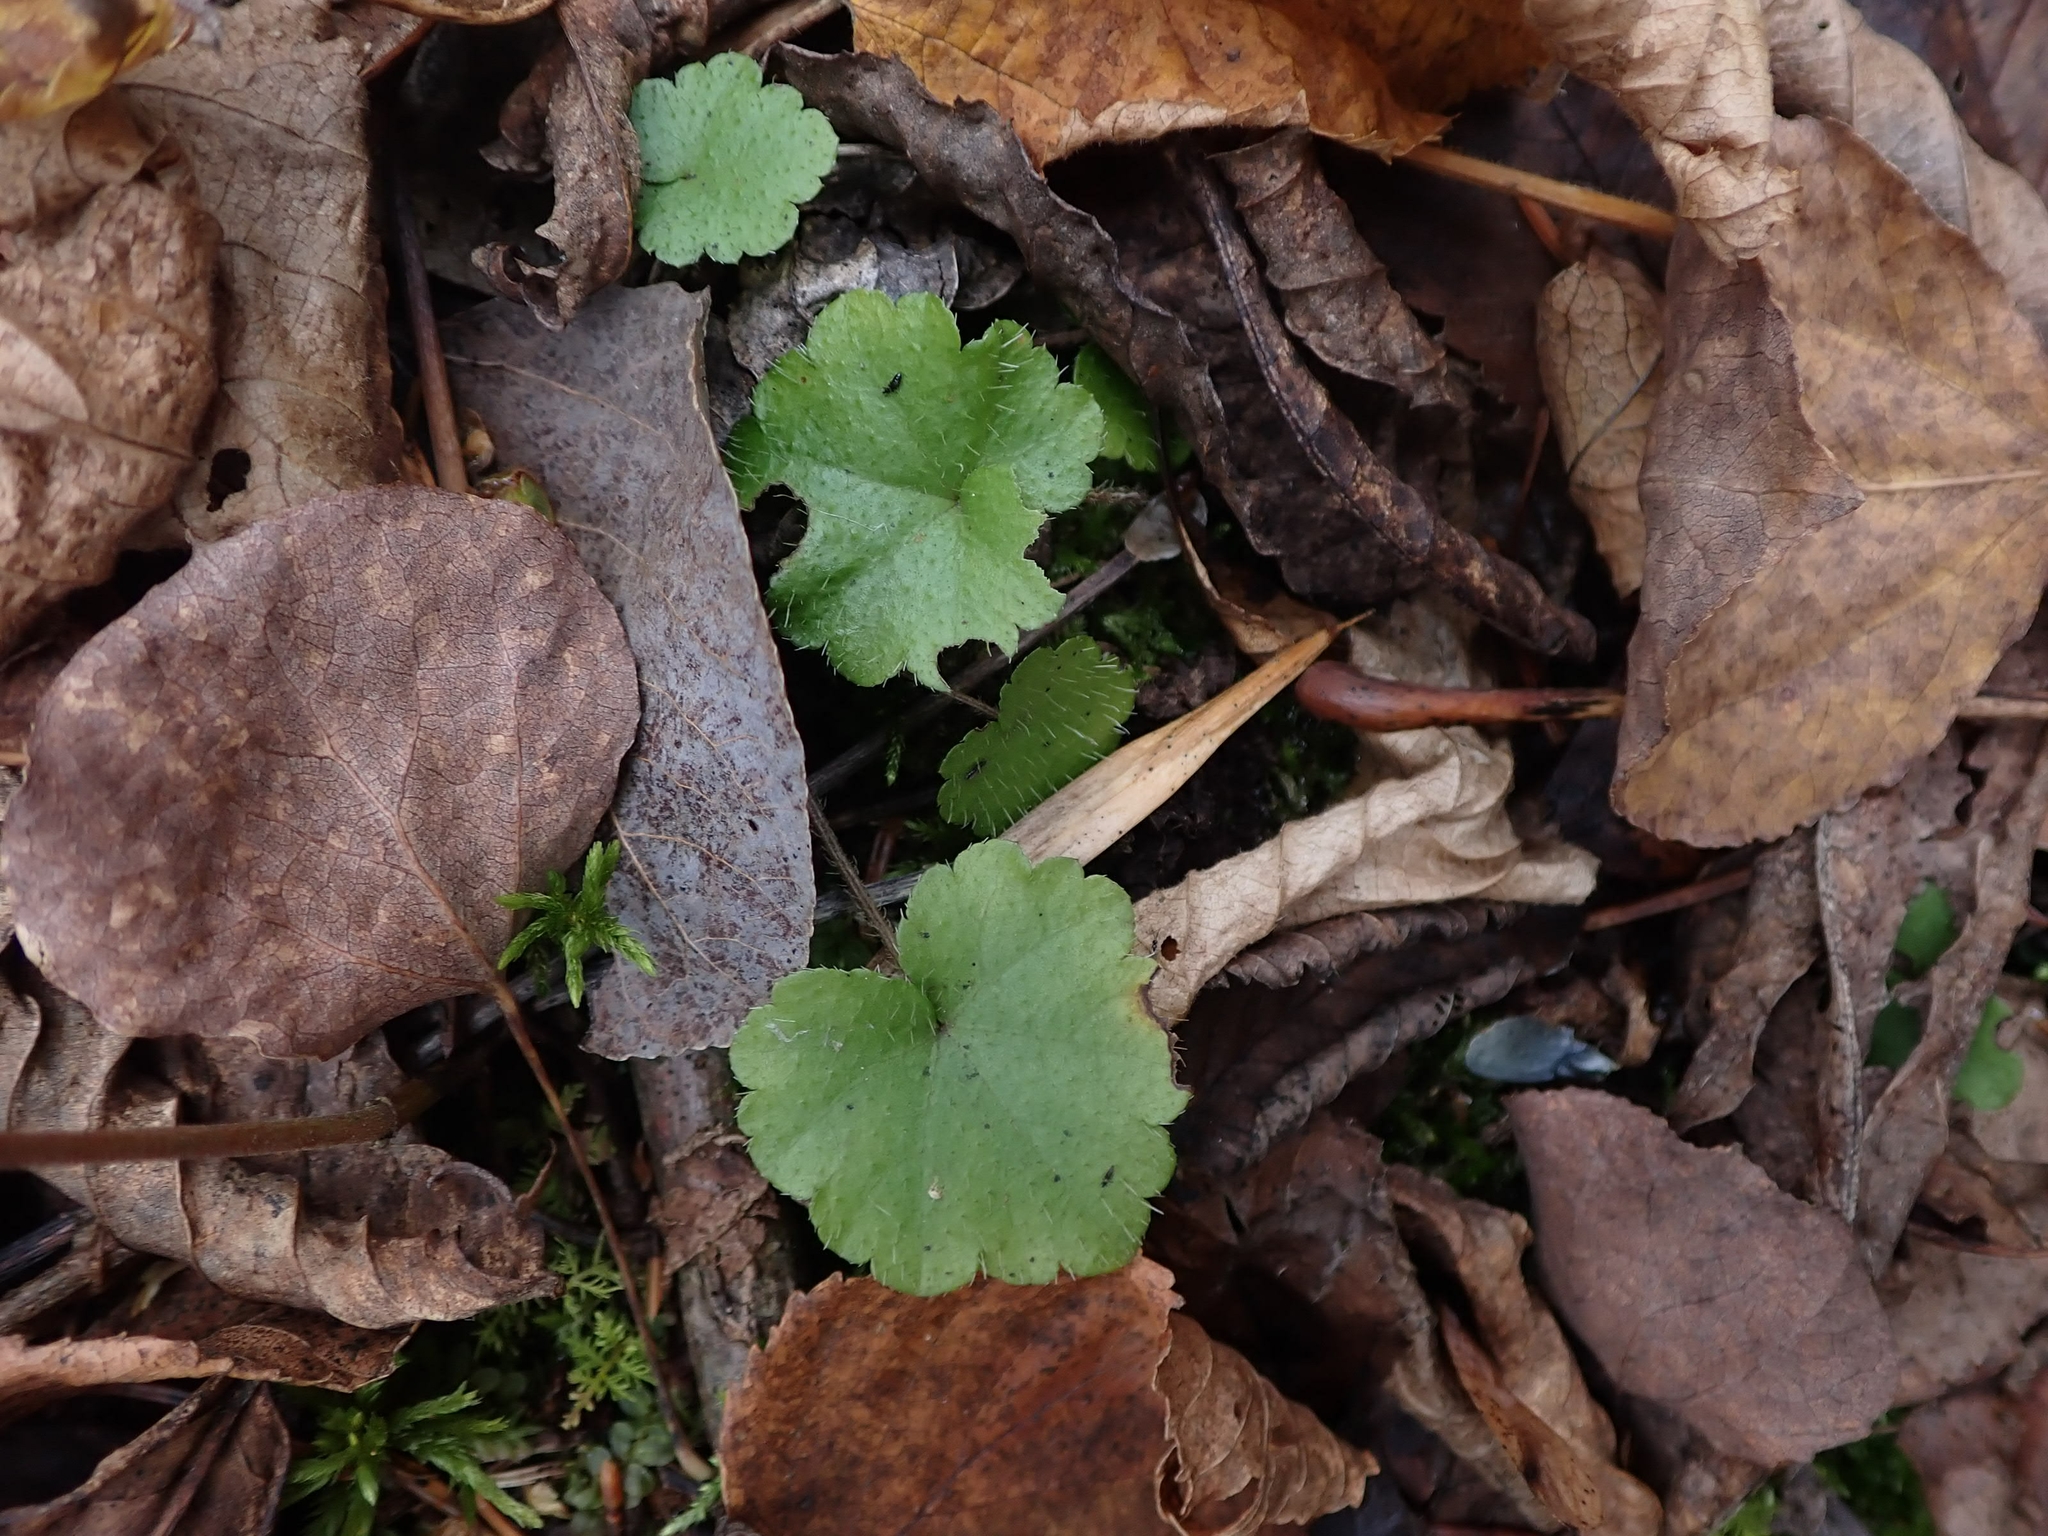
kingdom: Plantae
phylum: Tracheophyta
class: Magnoliopsida
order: Saxifragales
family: Saxifragaceae
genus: Mitella
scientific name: Mitella nuda
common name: Bare-stemmed bishop's-cap
